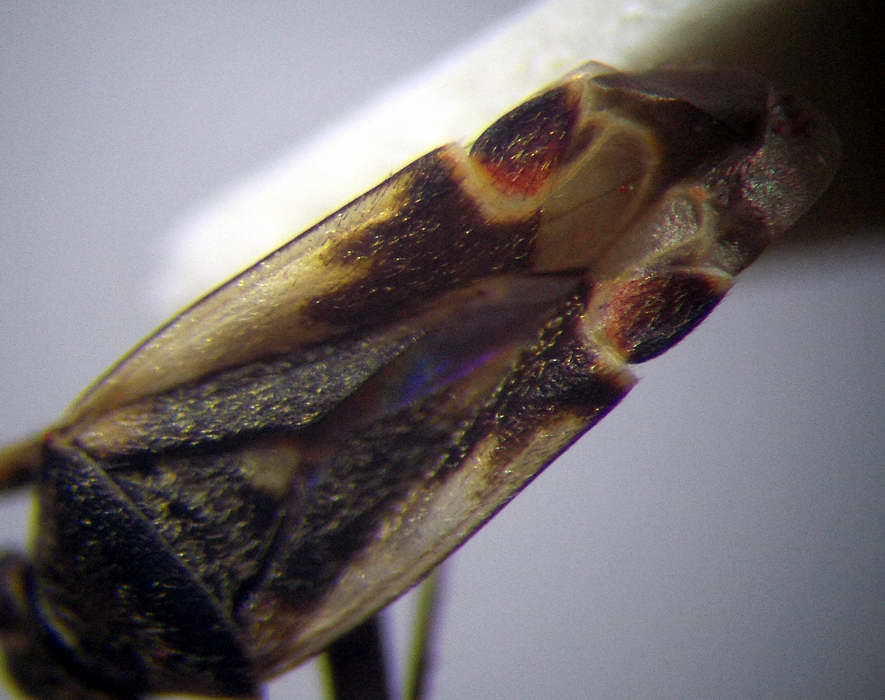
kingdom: Animalia
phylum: Arthropoda
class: Insecta
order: Hemiptera
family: Miridae
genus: Polymerus
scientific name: Polymerus cognatus
